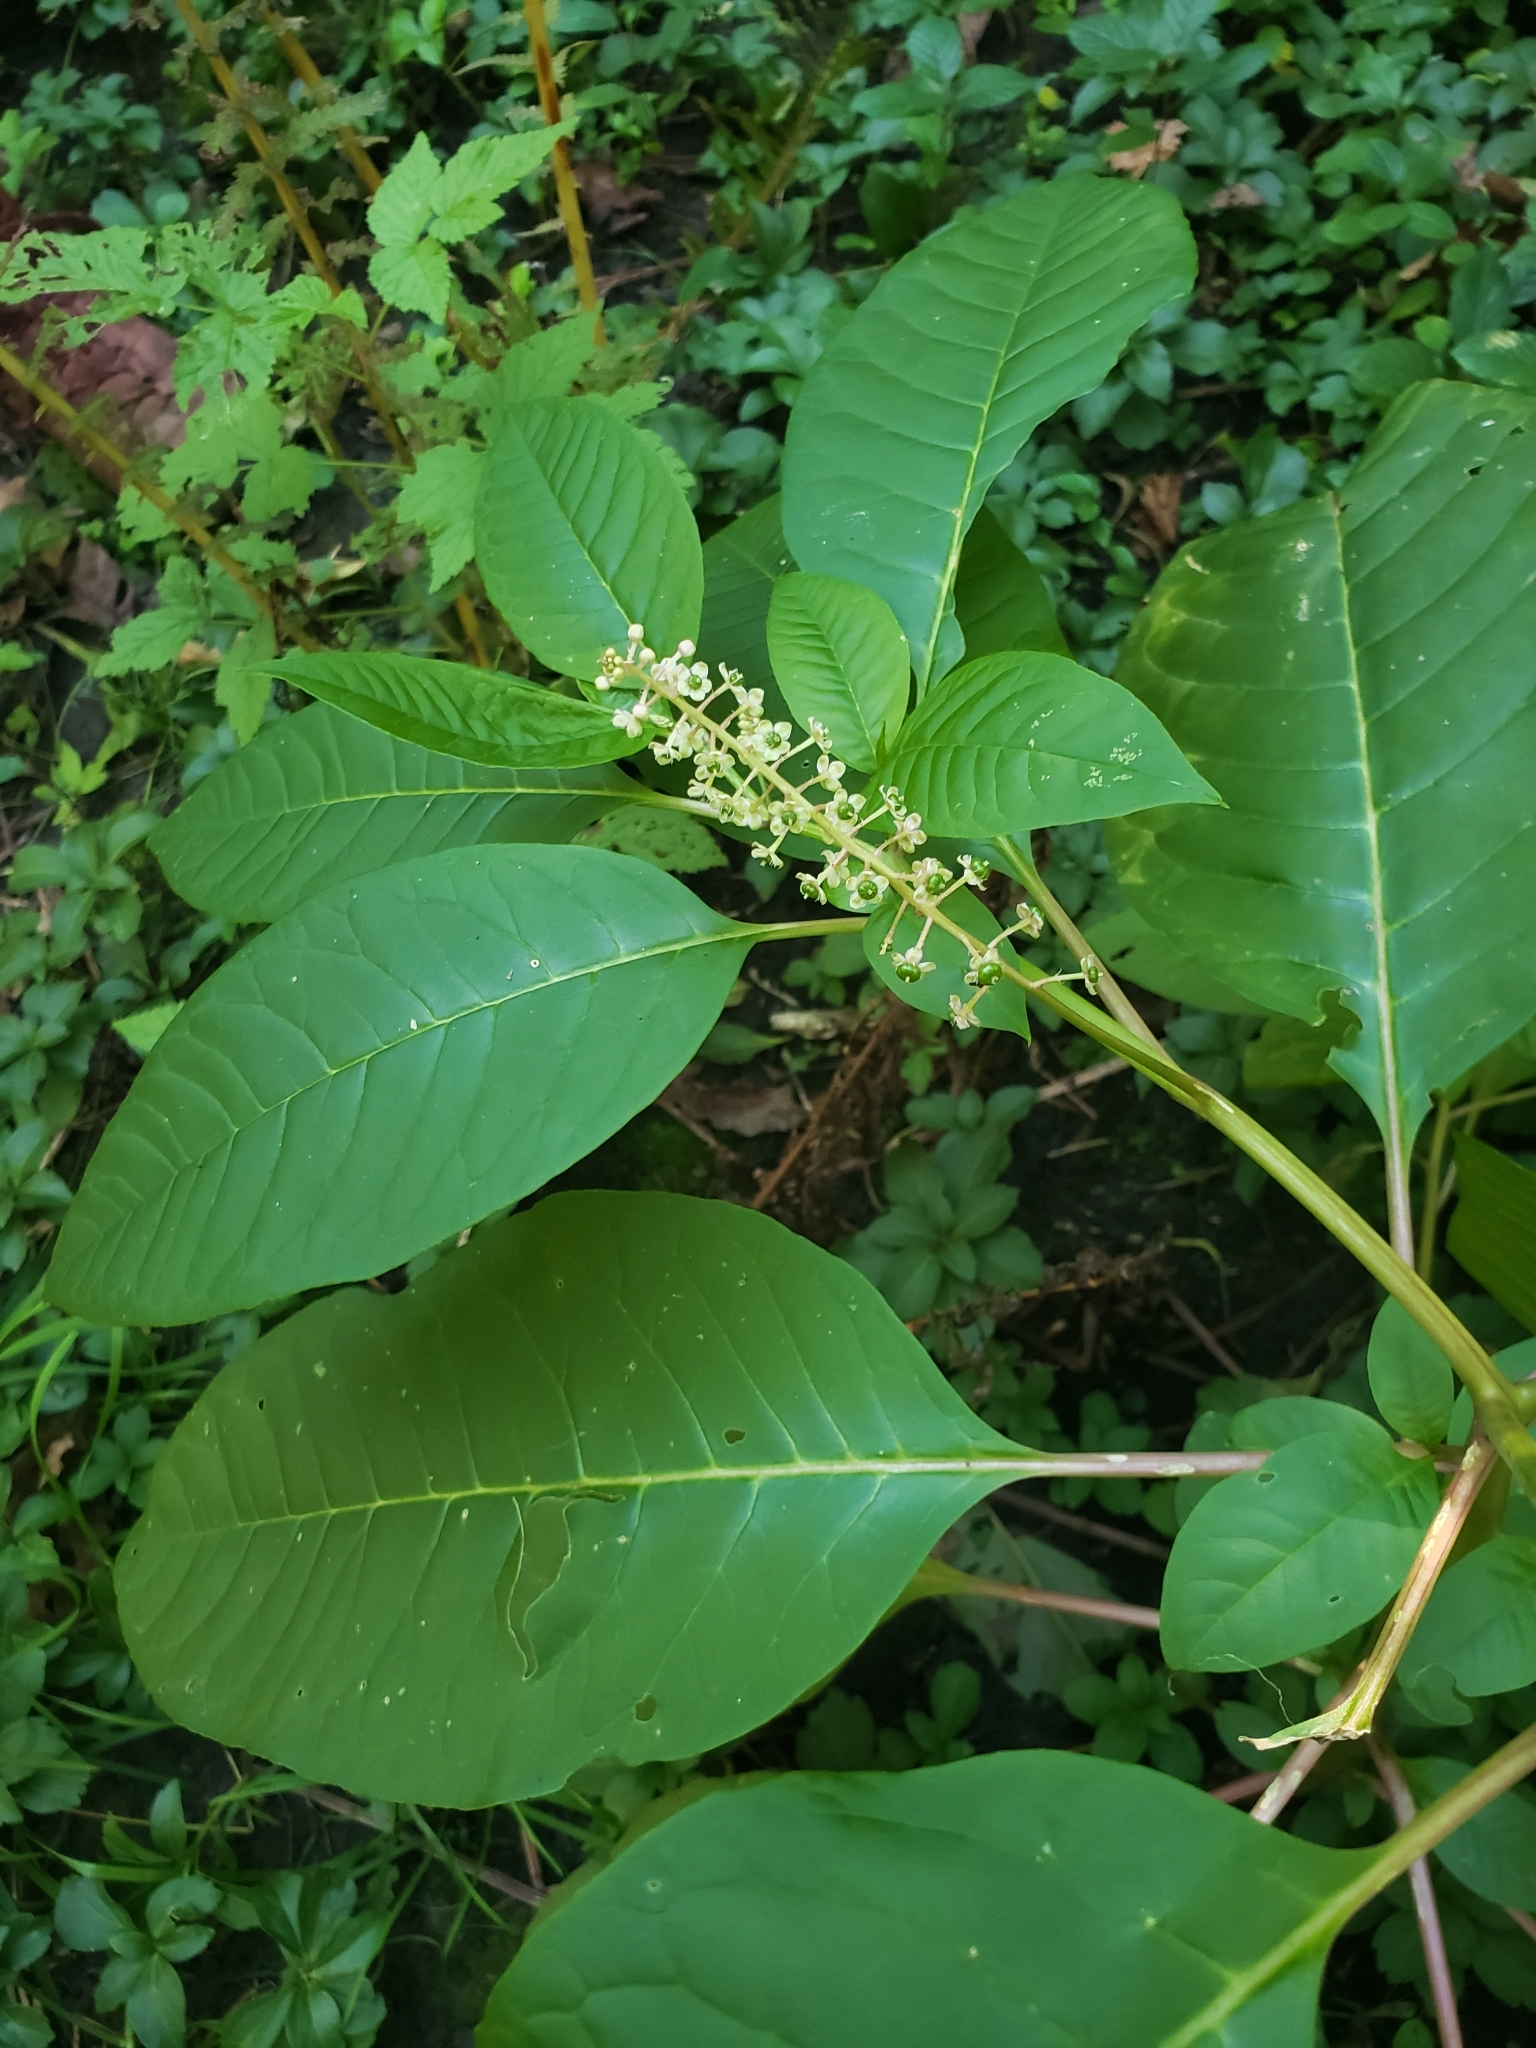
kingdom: Plantae
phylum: Tracheophyta
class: Magnoliopsida
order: Caryophyllales
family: Phytolaccaceae
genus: Phytolacca
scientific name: Phytolacca americana
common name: American pokeweed
